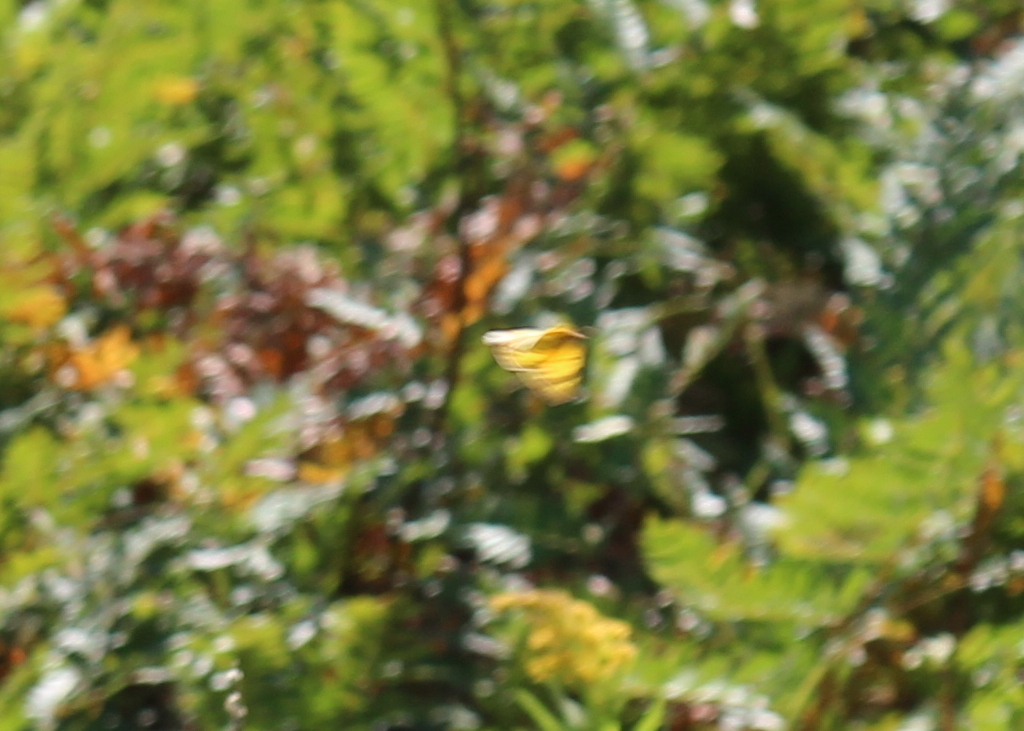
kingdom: Animalia
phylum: Arthropoda
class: Insecta
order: Lepidoptera
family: Pieridae
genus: Colias
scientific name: Colias eurytheme
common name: Alfalfa butterfly
